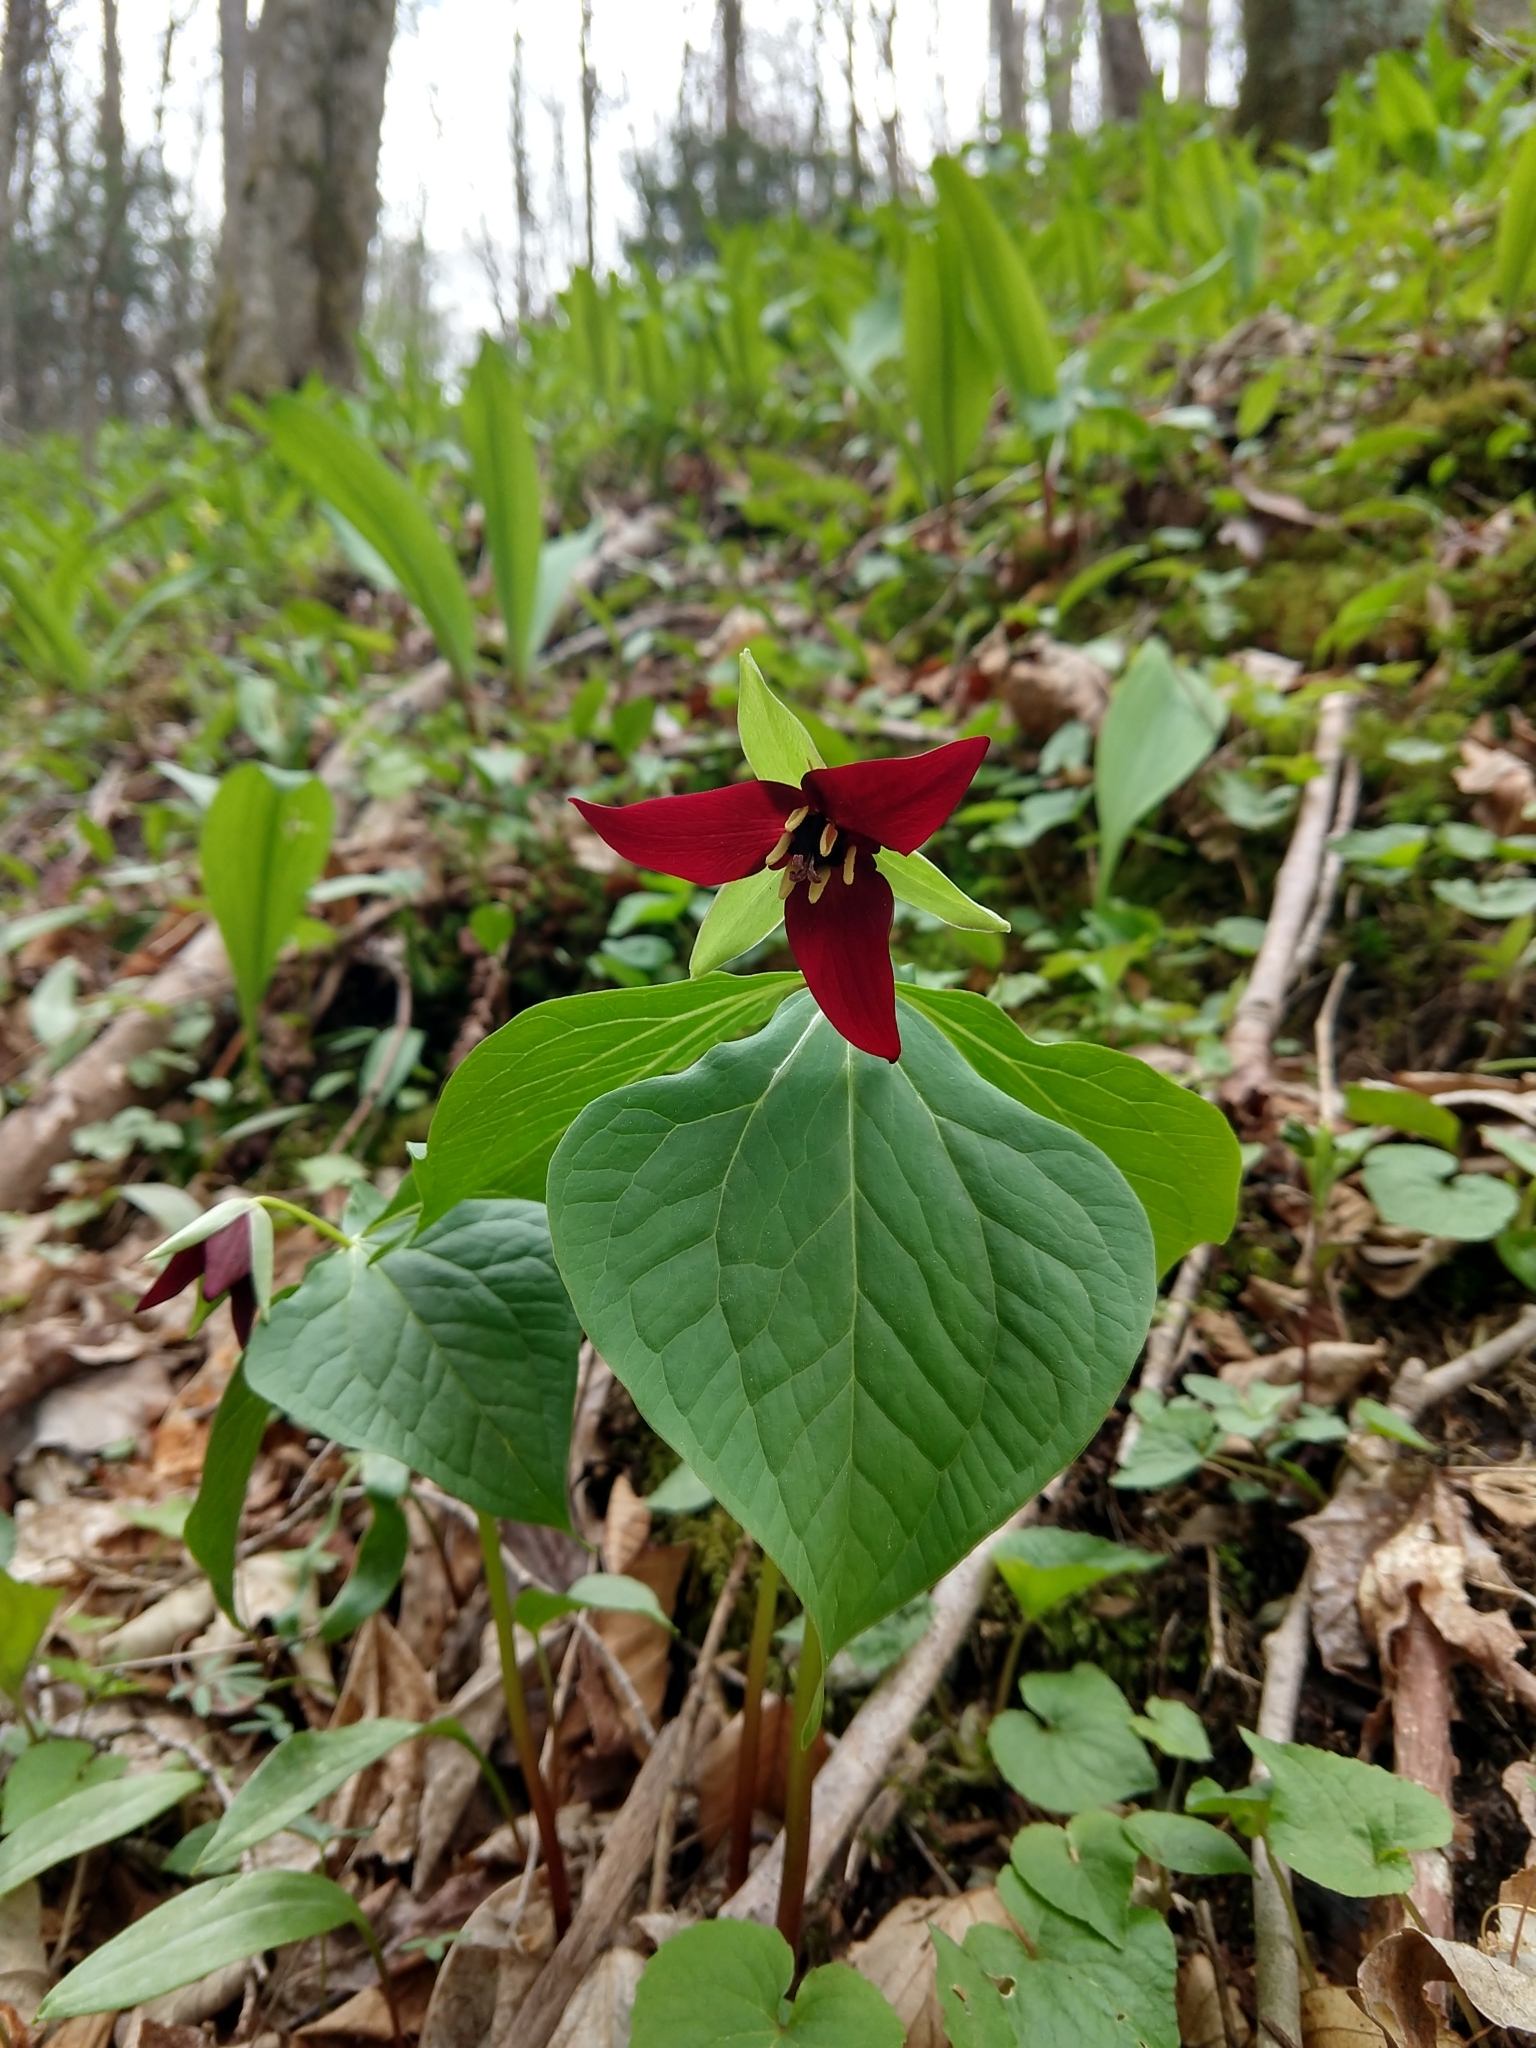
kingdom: Plantae
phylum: Tracheophyta
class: Liliopsida
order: Liliales
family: Melanthiaceae
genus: Trillium
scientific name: Trillium erectum
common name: Purple trillium
